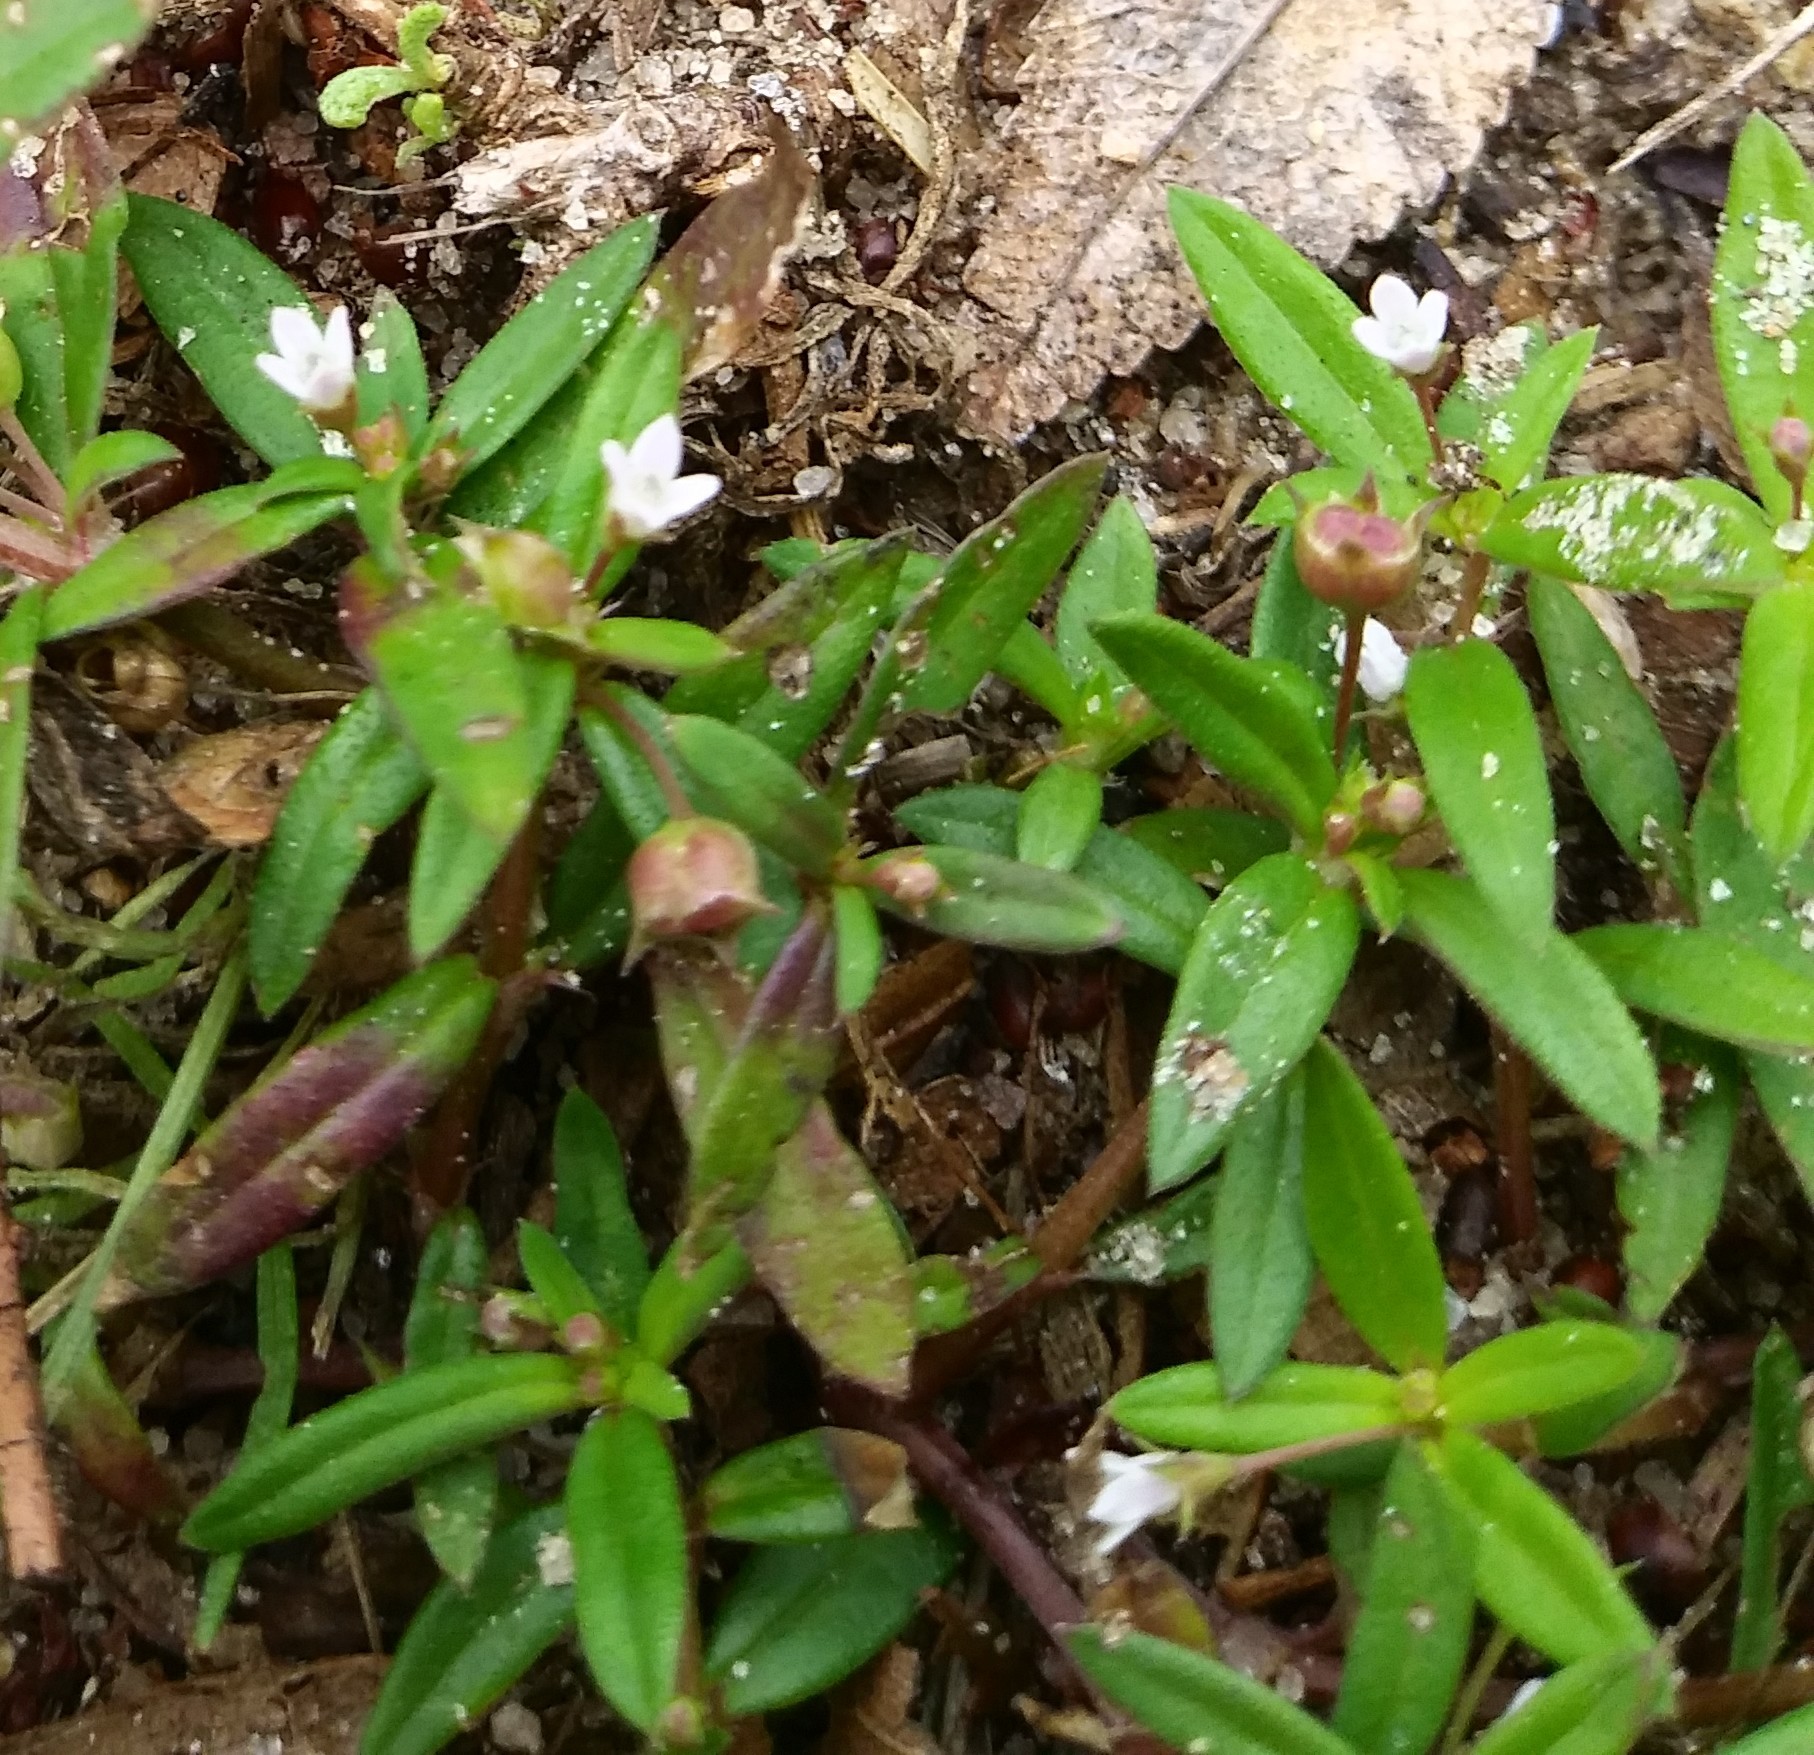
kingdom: Plantae
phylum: Tracheophyta
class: Magnoliopsida
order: Gentianales
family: Rubiaceae
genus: Diodia
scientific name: Diodia virginiana
